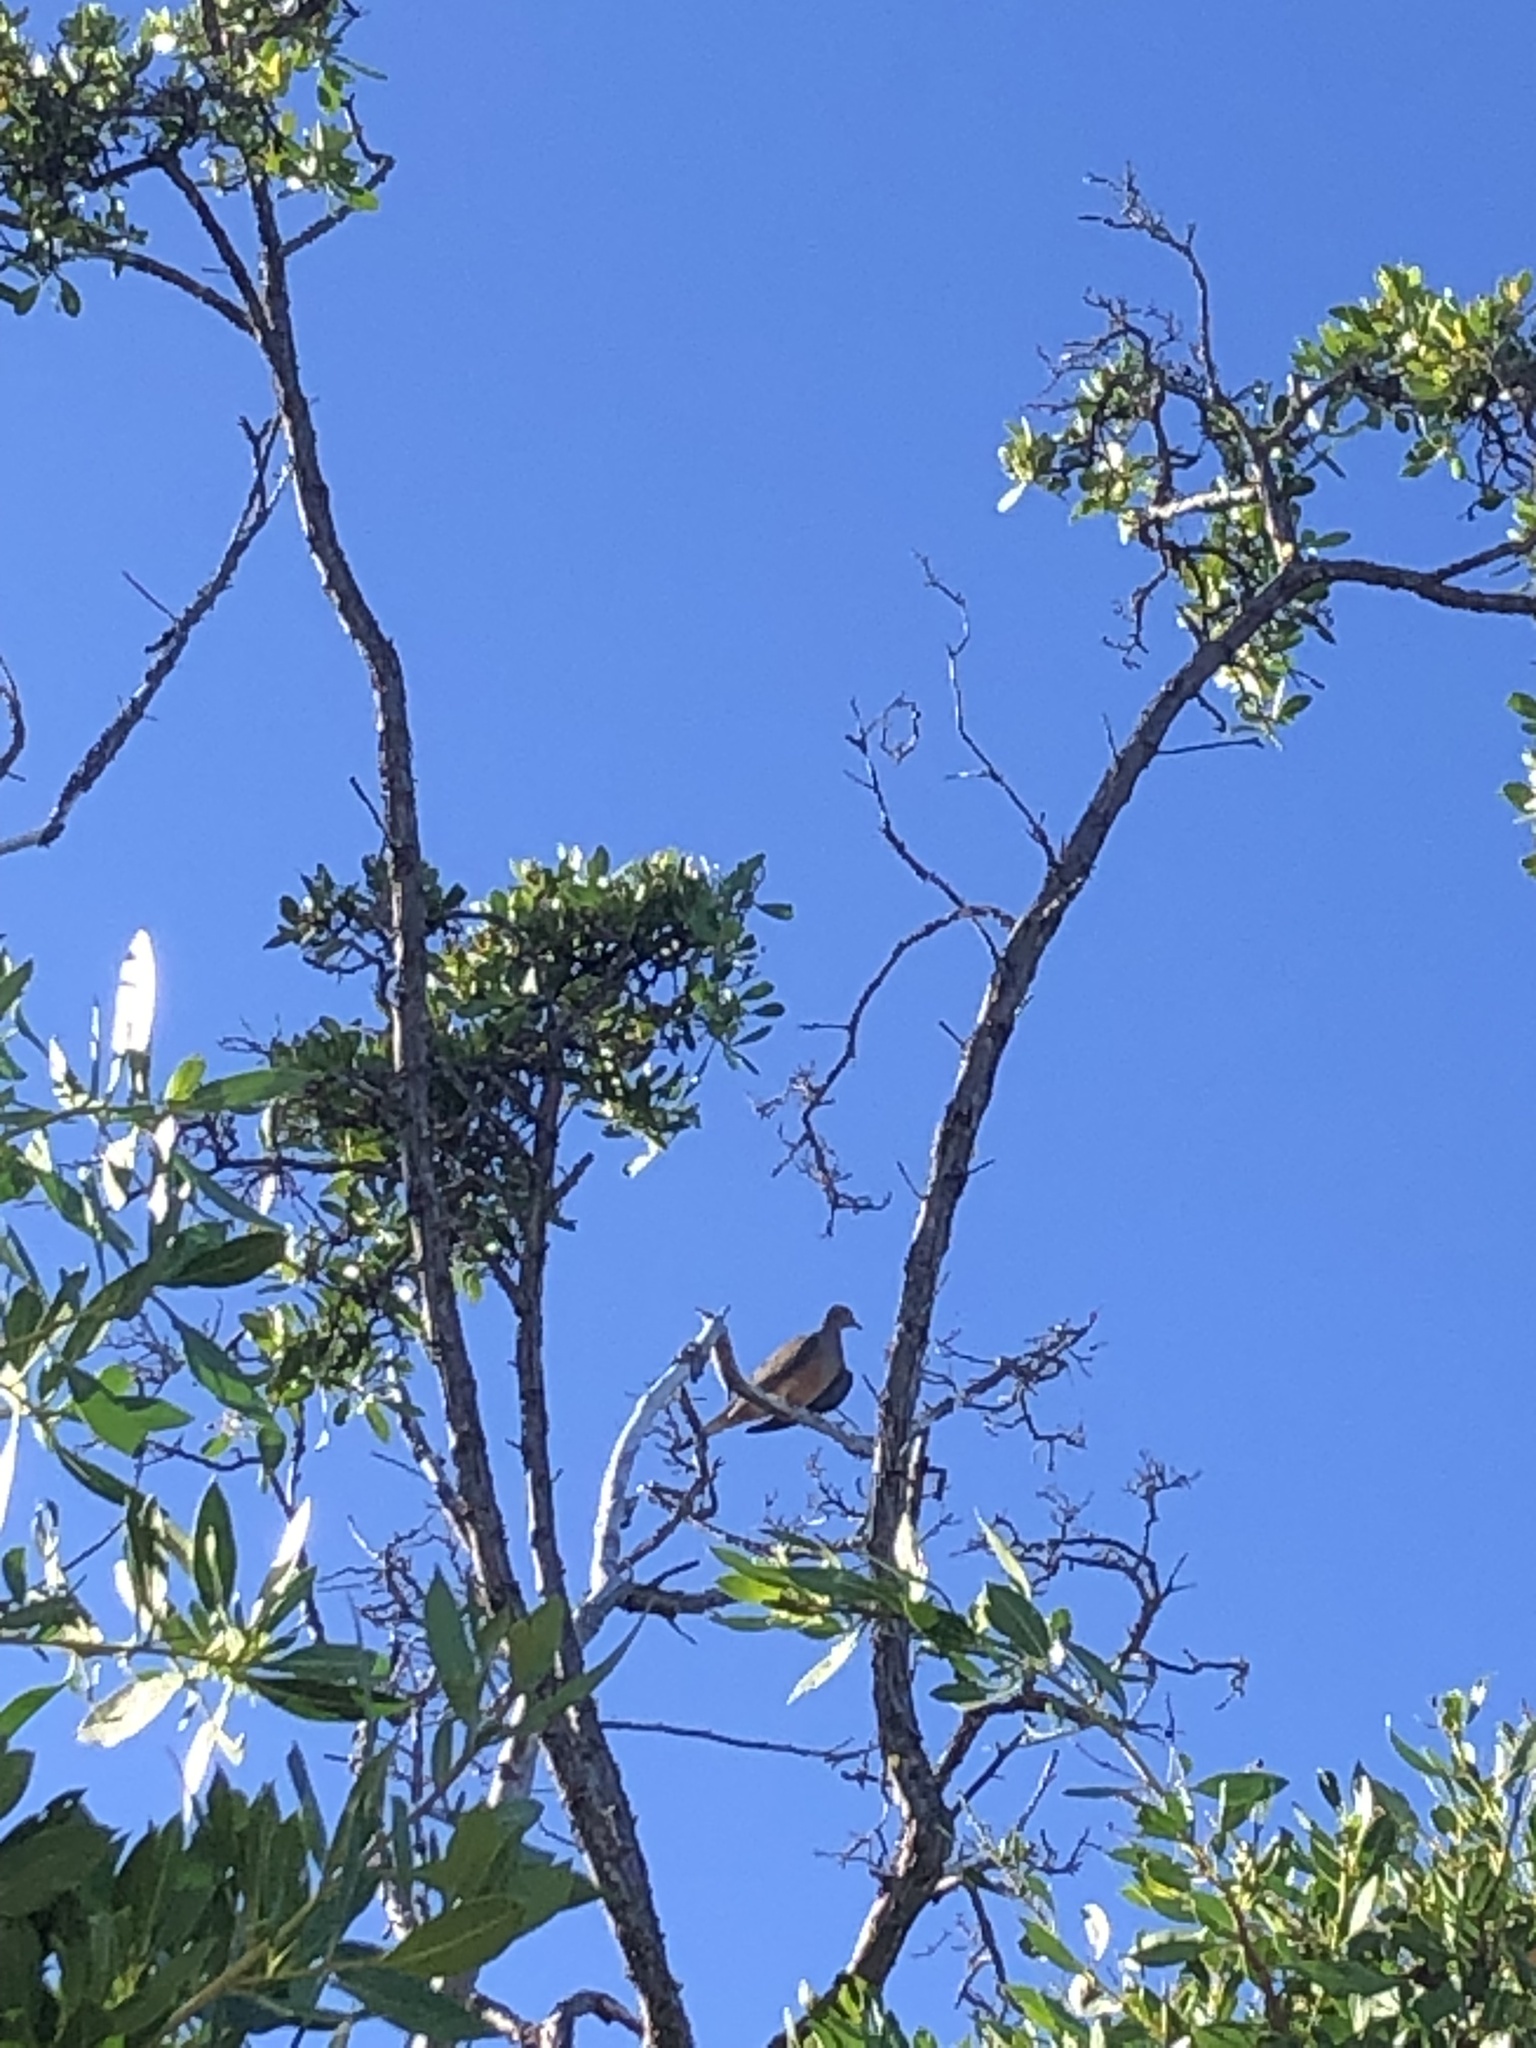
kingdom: Animalia
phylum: Chordata
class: Aves
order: Columbiformes
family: Columbidae
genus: Zenaida
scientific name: Zenaida macroura
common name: Mourning dove
